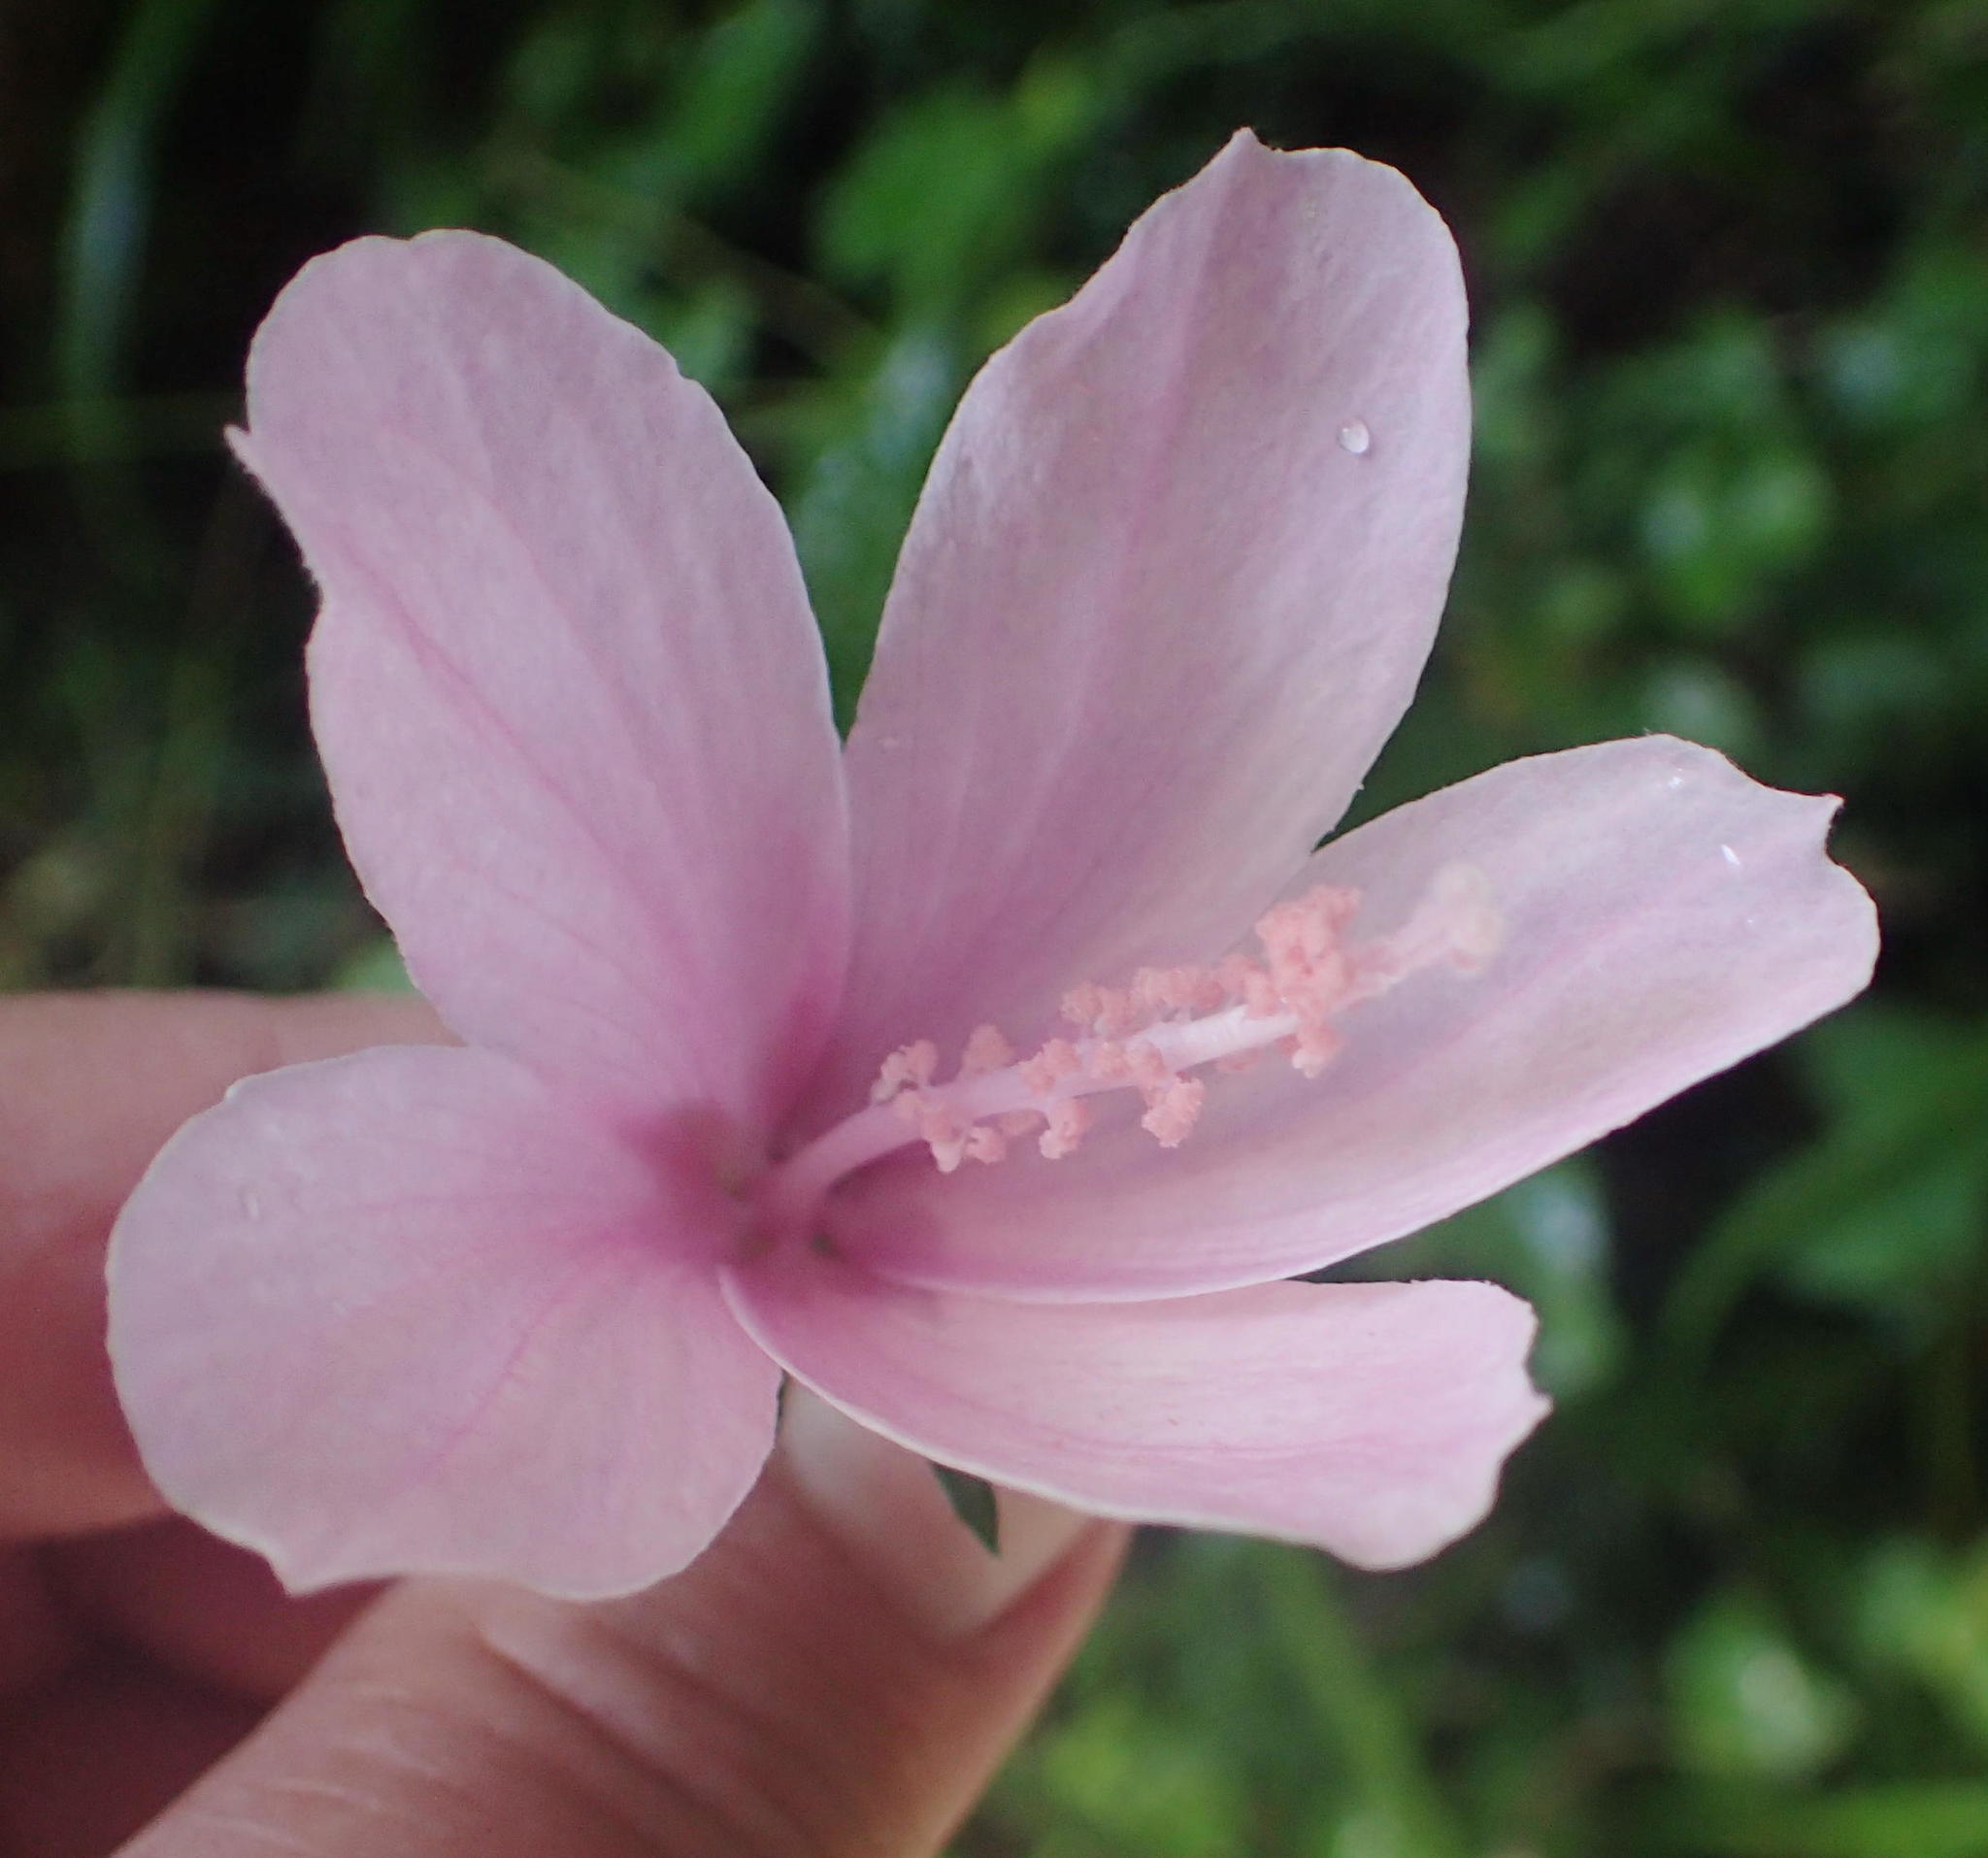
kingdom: Plantae
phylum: Tracheophyta
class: Magnoliopsida
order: Malvales
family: Malvaceae
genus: Hibiscus
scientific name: Hibiscus pedunculatus
